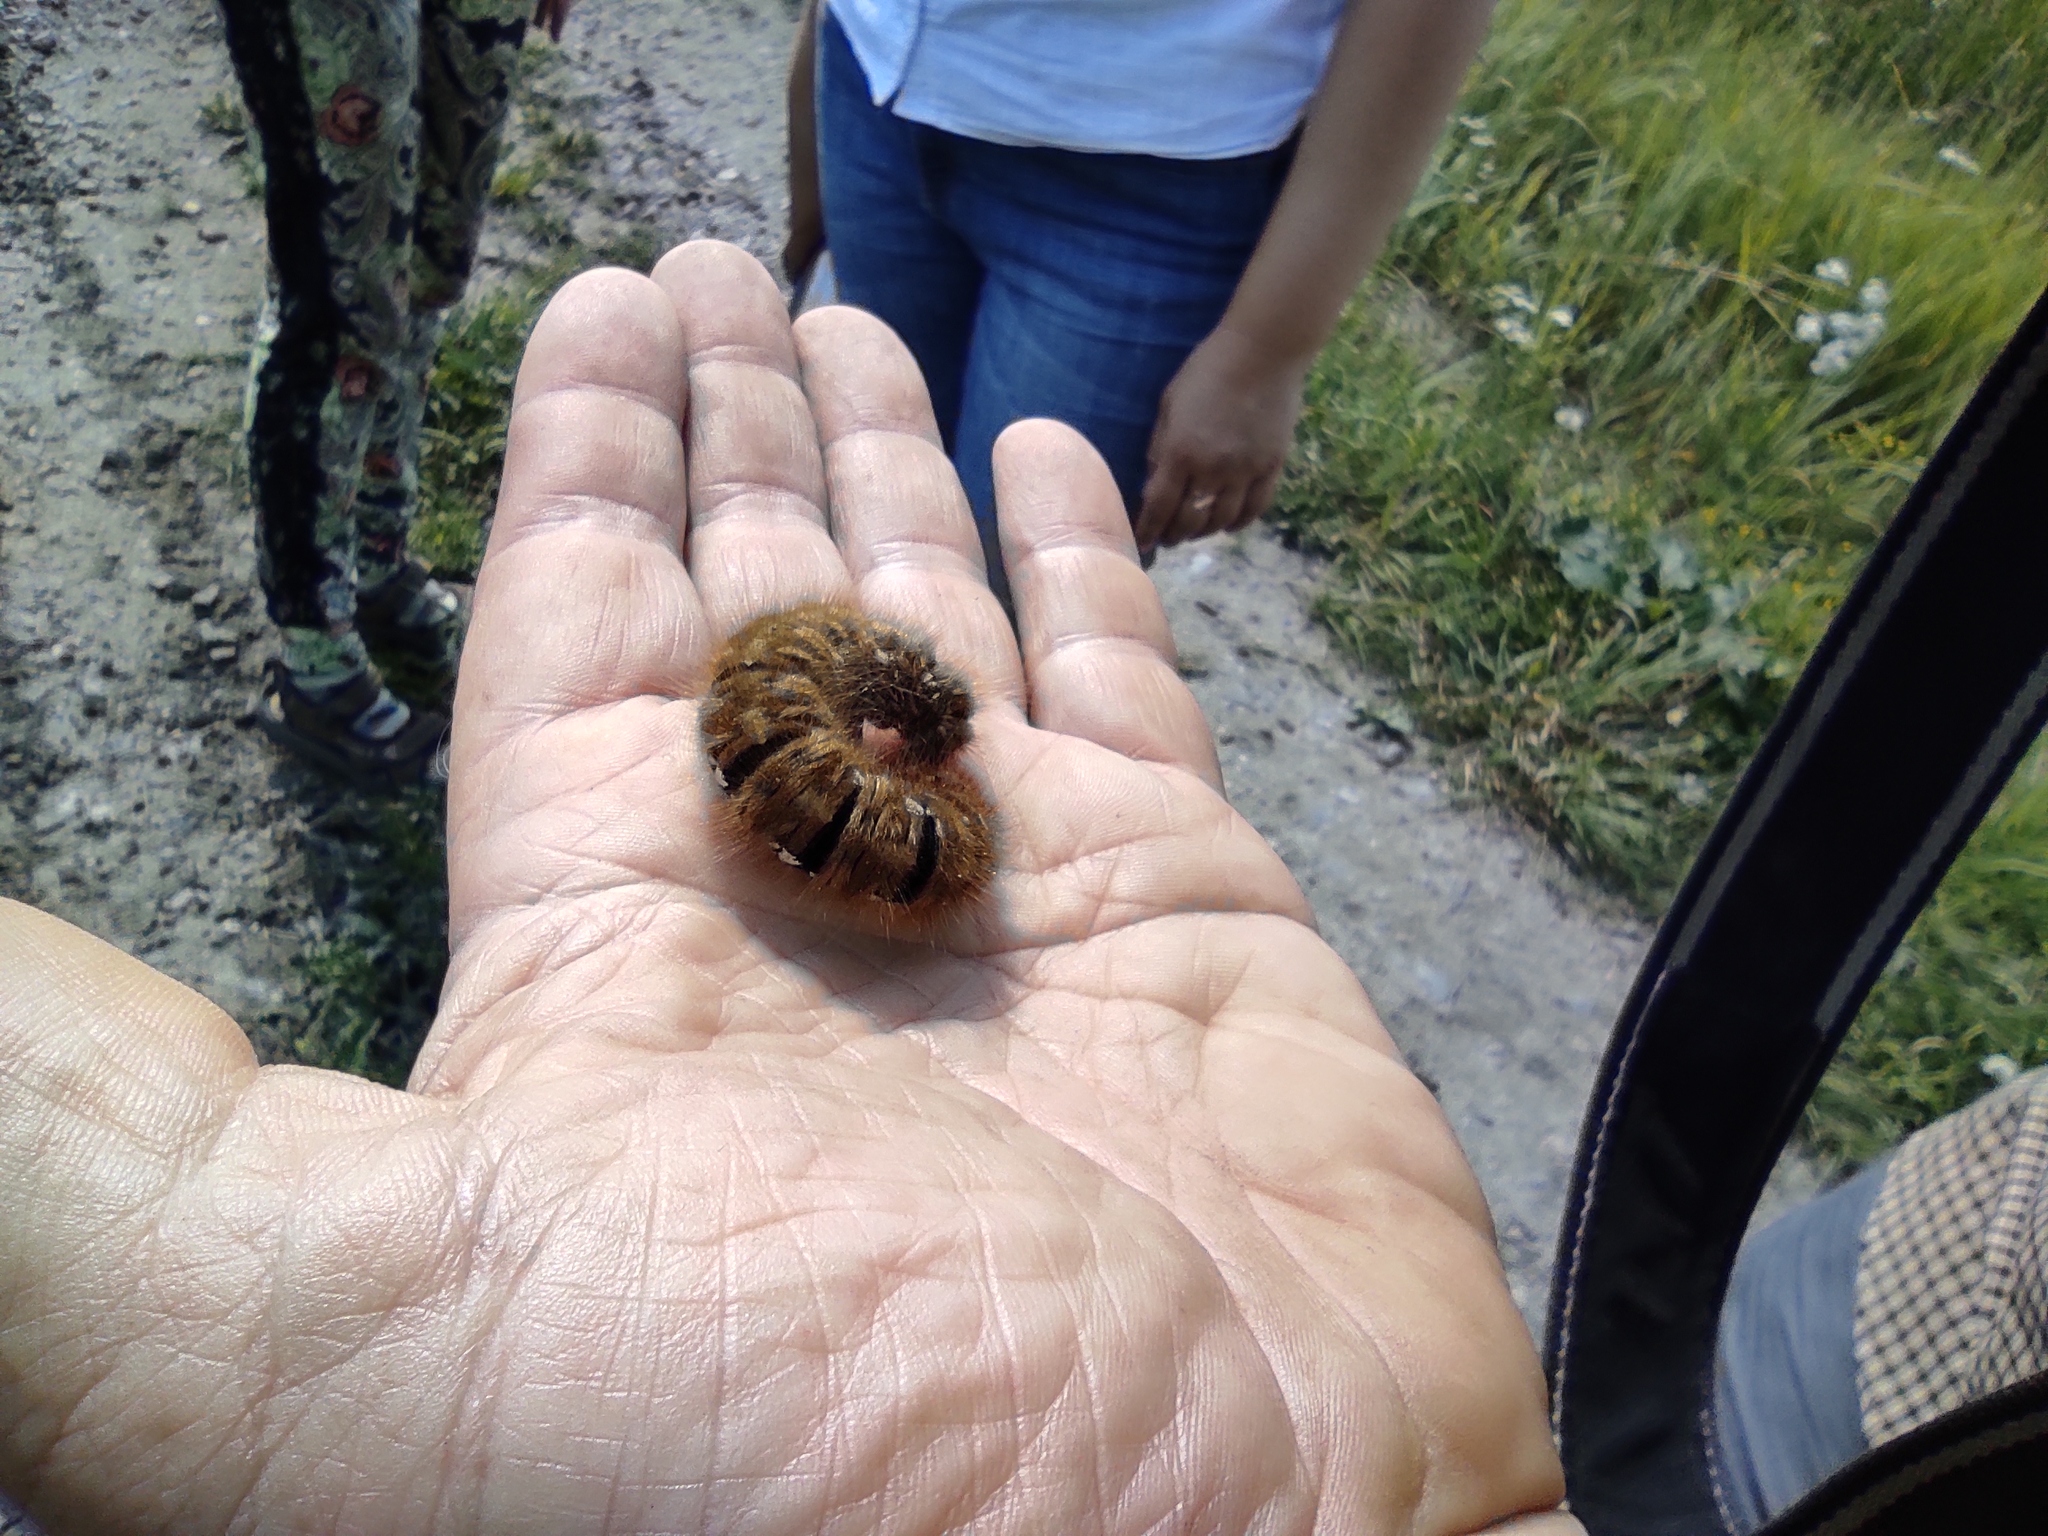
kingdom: Animalia
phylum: Arthropoda
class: Insecta
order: Lepidoptera
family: Lasiocampidae
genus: Lasiocampa
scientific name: Lasiocampa quercus
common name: Oak eggar
